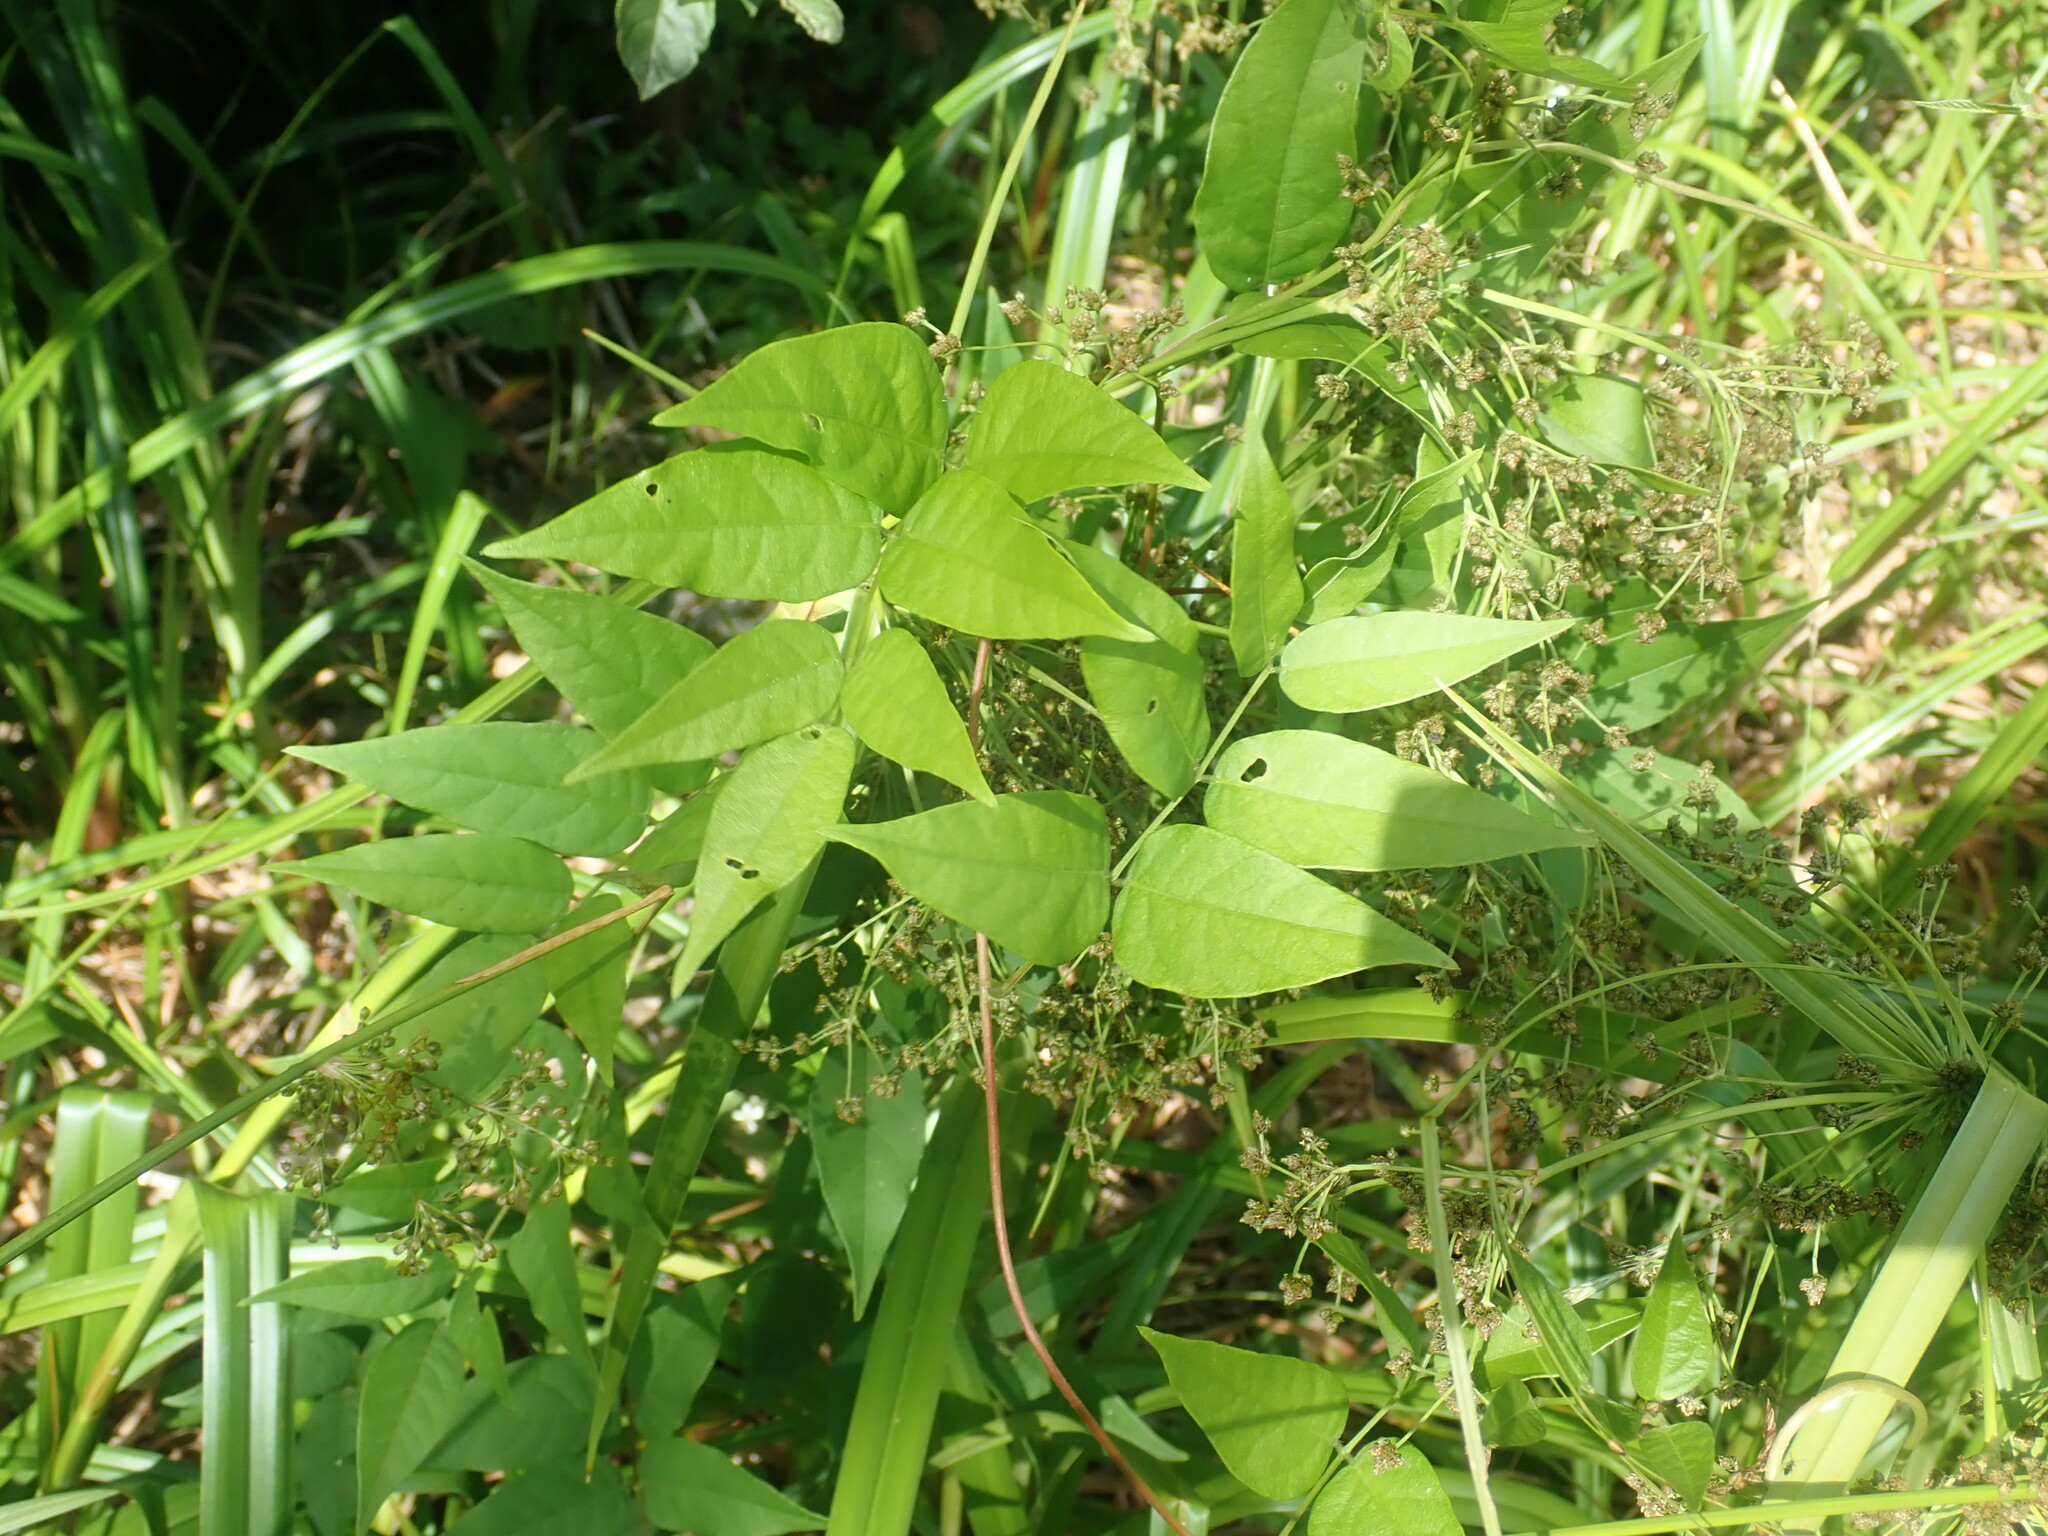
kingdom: Plantae
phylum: Tracheophyta
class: Magnoliopsida
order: Fabales
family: Fabaceae
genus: Apios
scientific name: Apios americana
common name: American potato-bean
